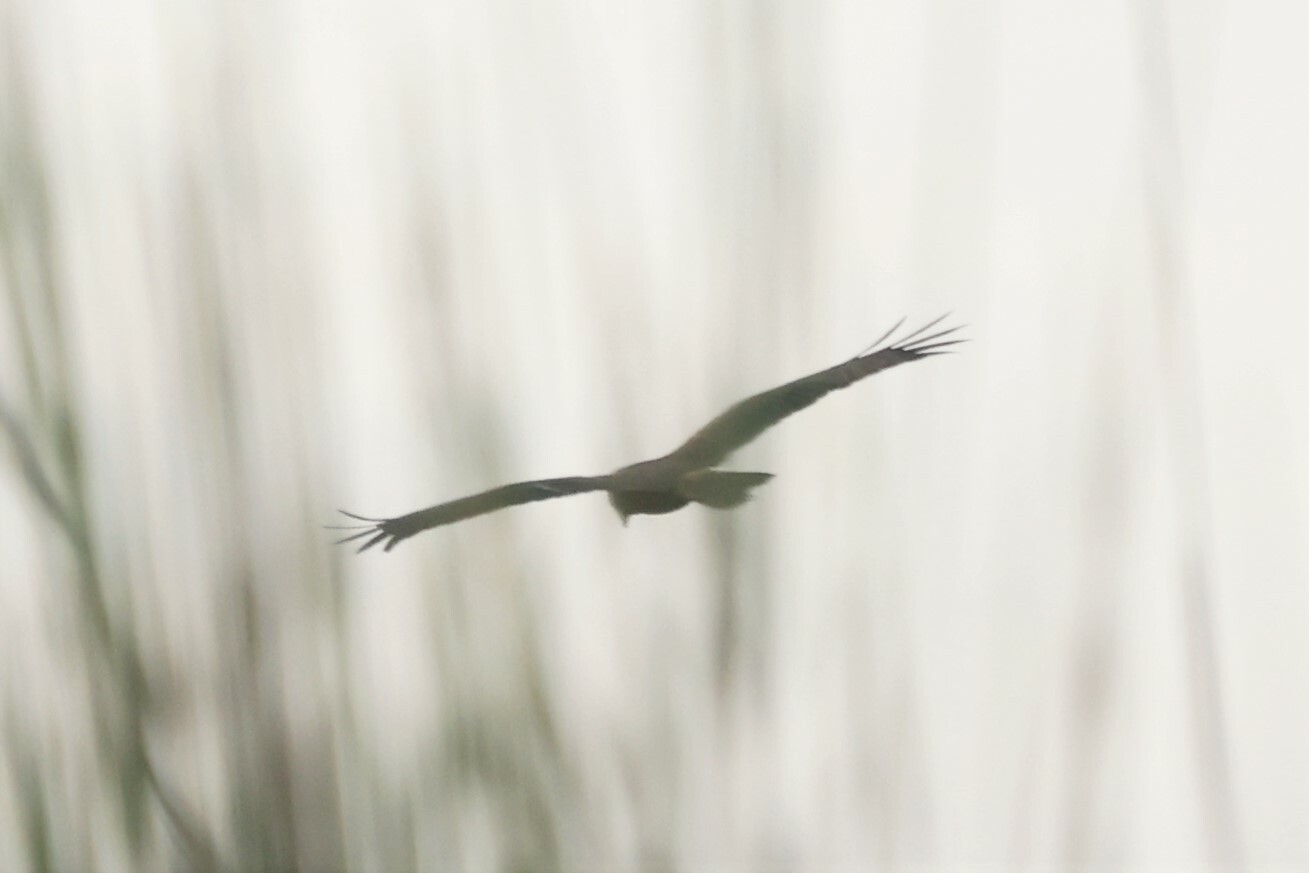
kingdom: Animalia
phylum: Chordata
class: Aves
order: Accipitriformes
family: Accipitridae
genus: Circus
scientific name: Circus ranivorus
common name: African marsh-harrier
